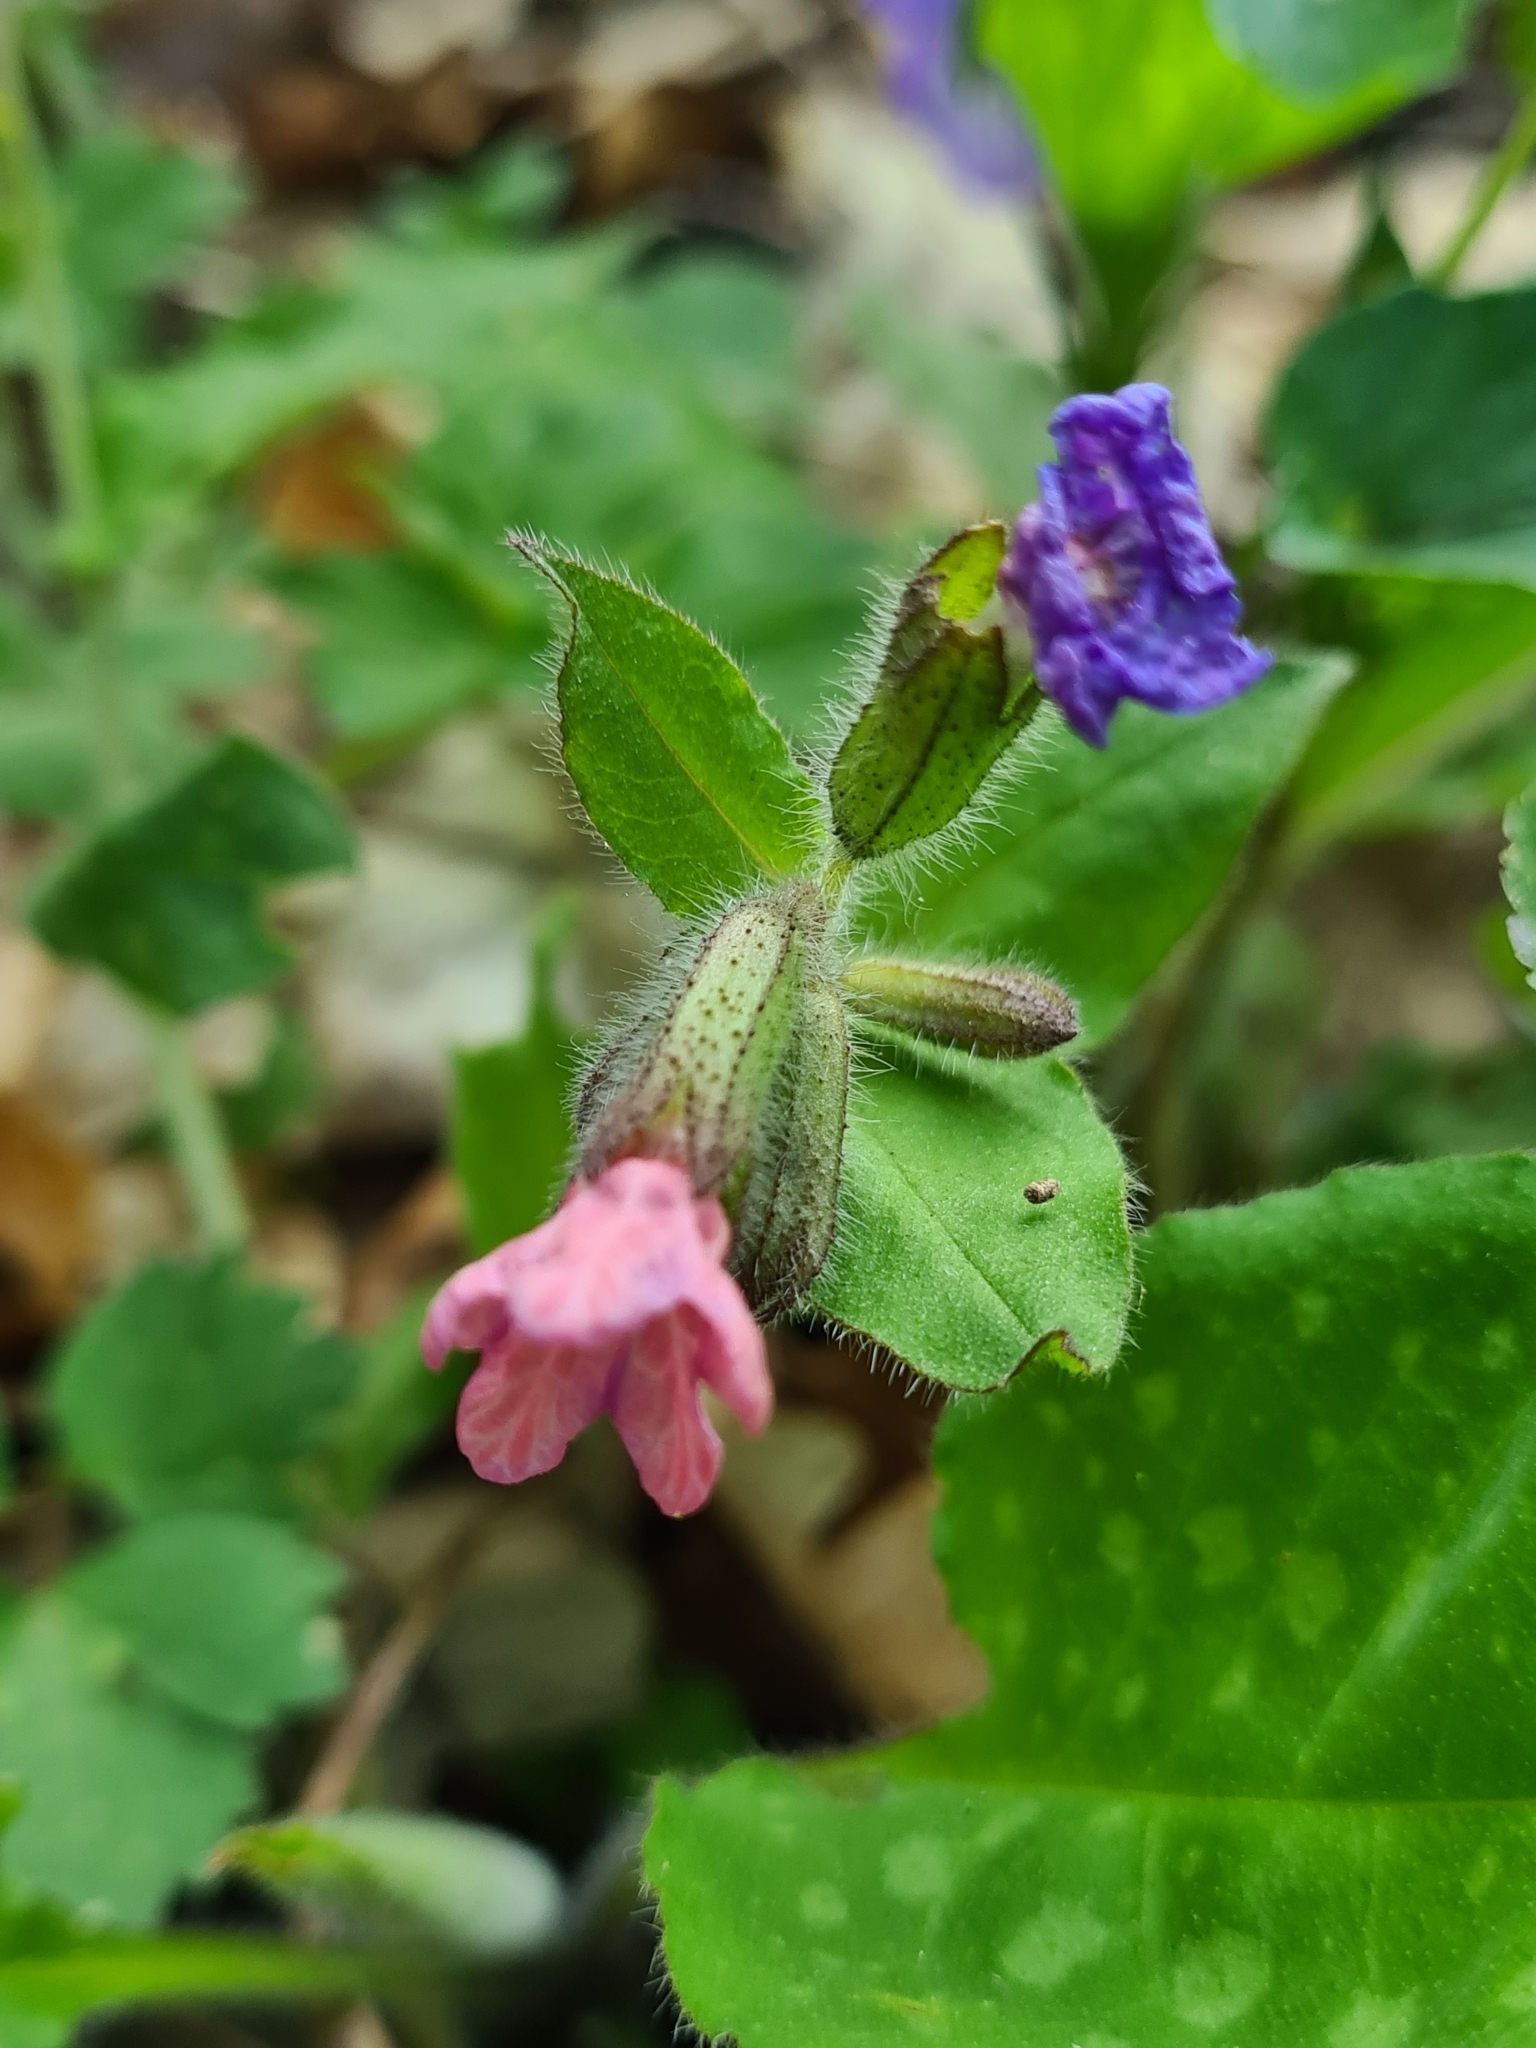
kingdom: Plantae
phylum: Tracheophyta
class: Magnoliopsida
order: Boraginales
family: Boraginaceae
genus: Pulmonaria
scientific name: Pulmonaria officinalis
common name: Lungwort
